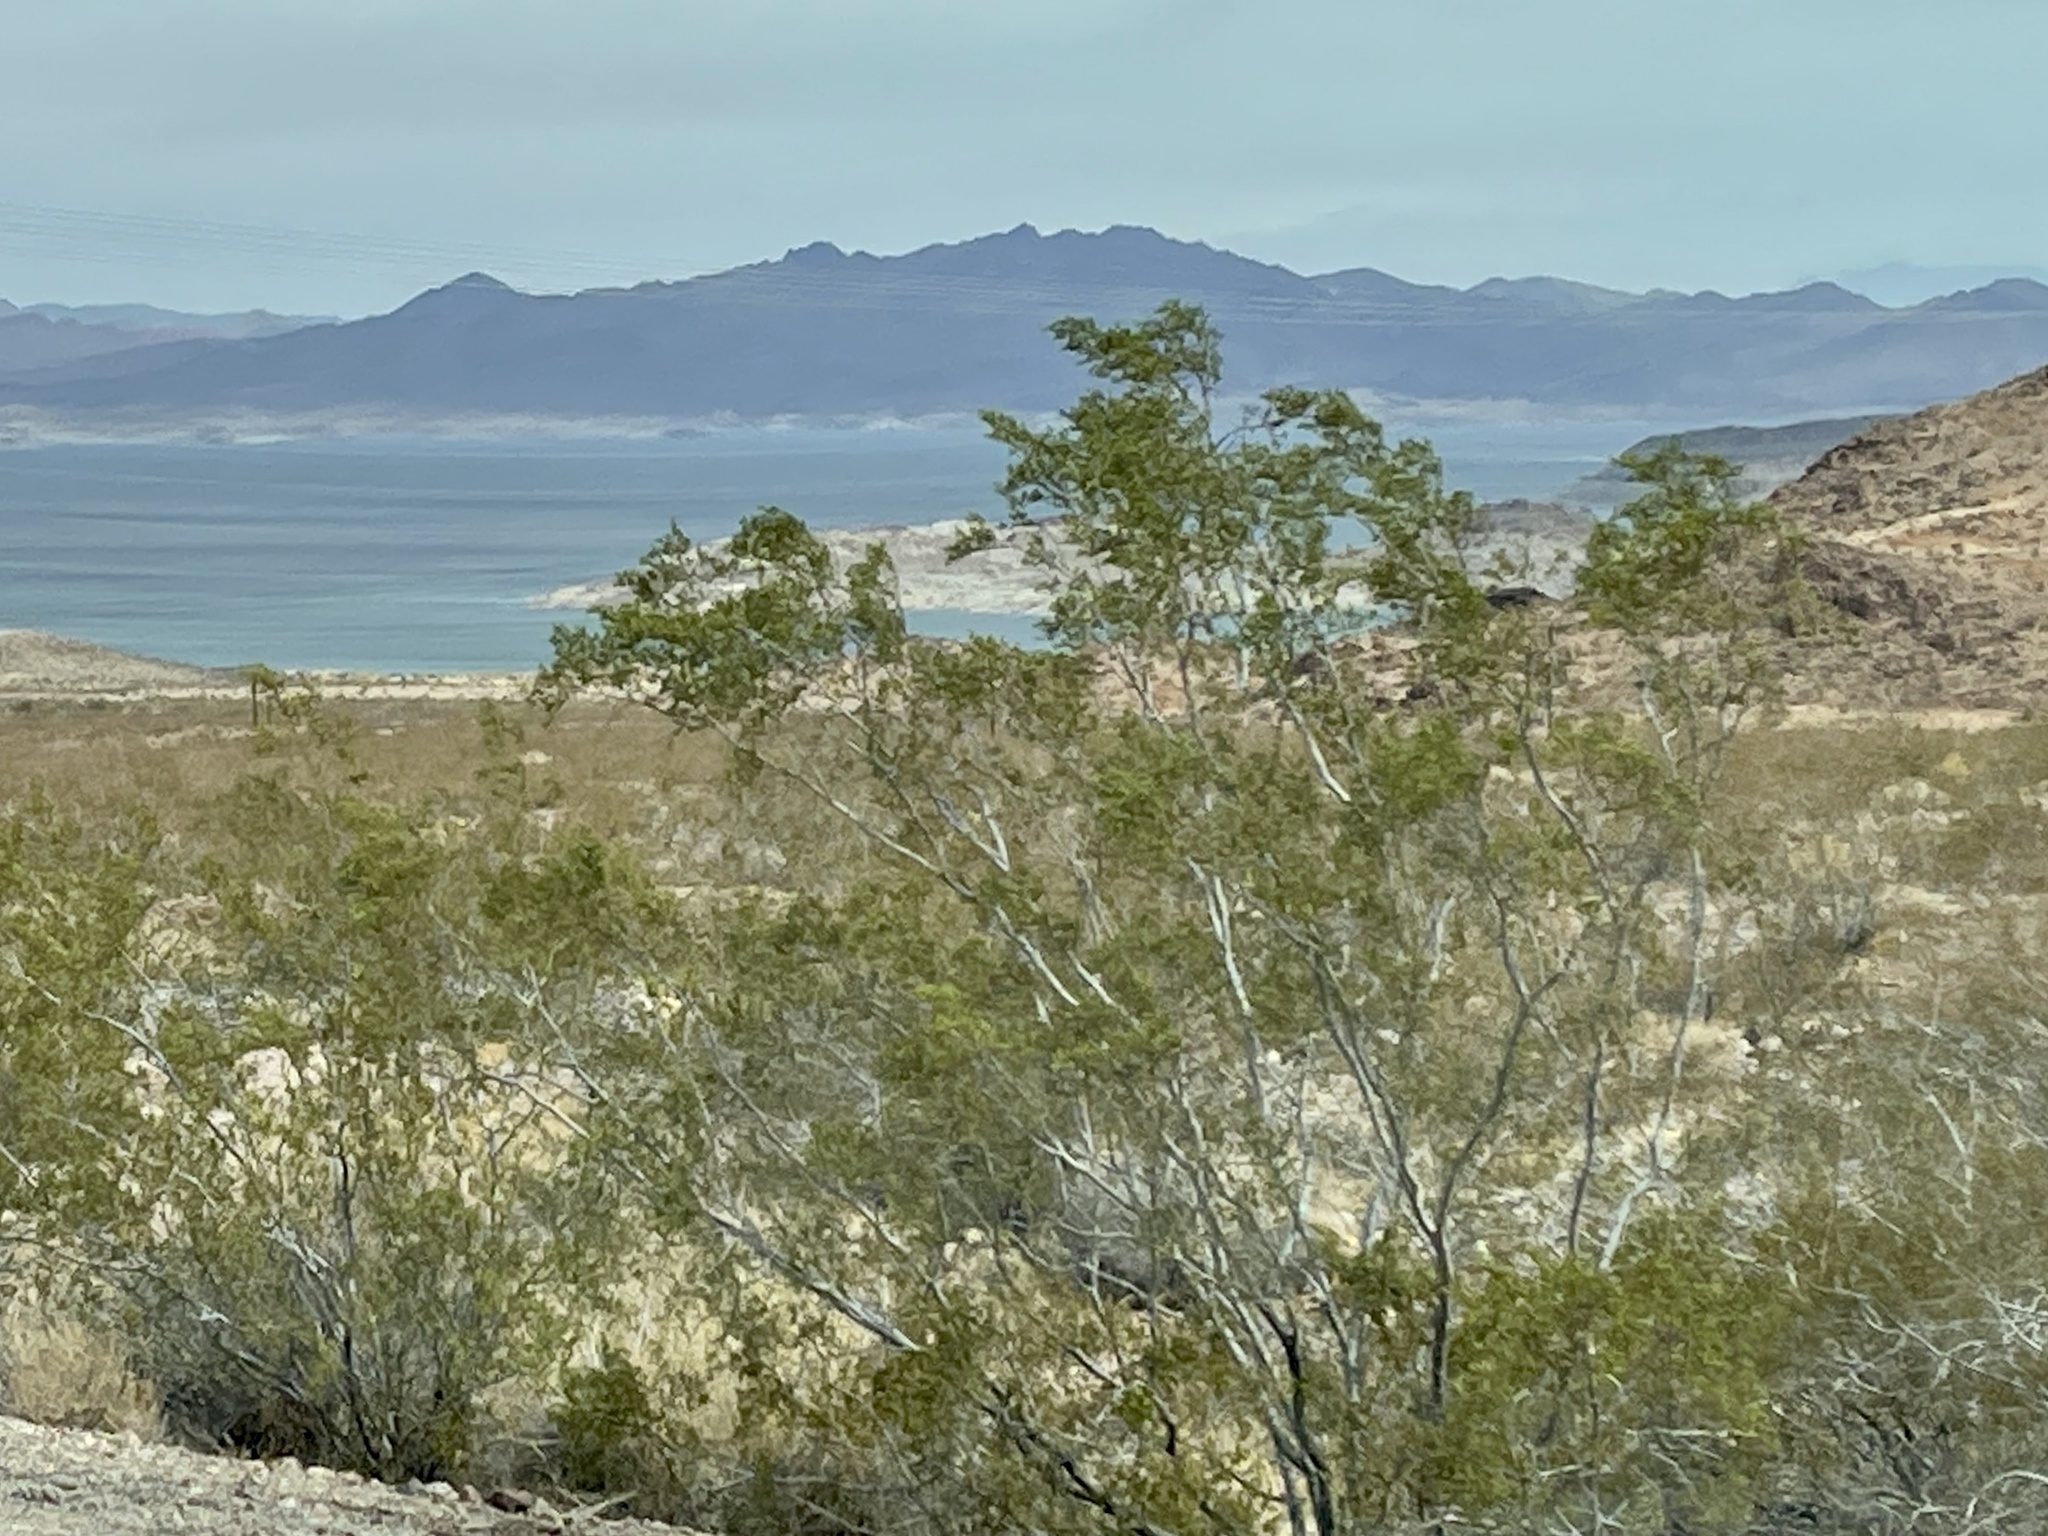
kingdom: Plantae
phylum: Tracheophyta
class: Magnoliopsida
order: Zygophyllales
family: Zygophyllaceae
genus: Larrea
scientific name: Larrea tridentata
